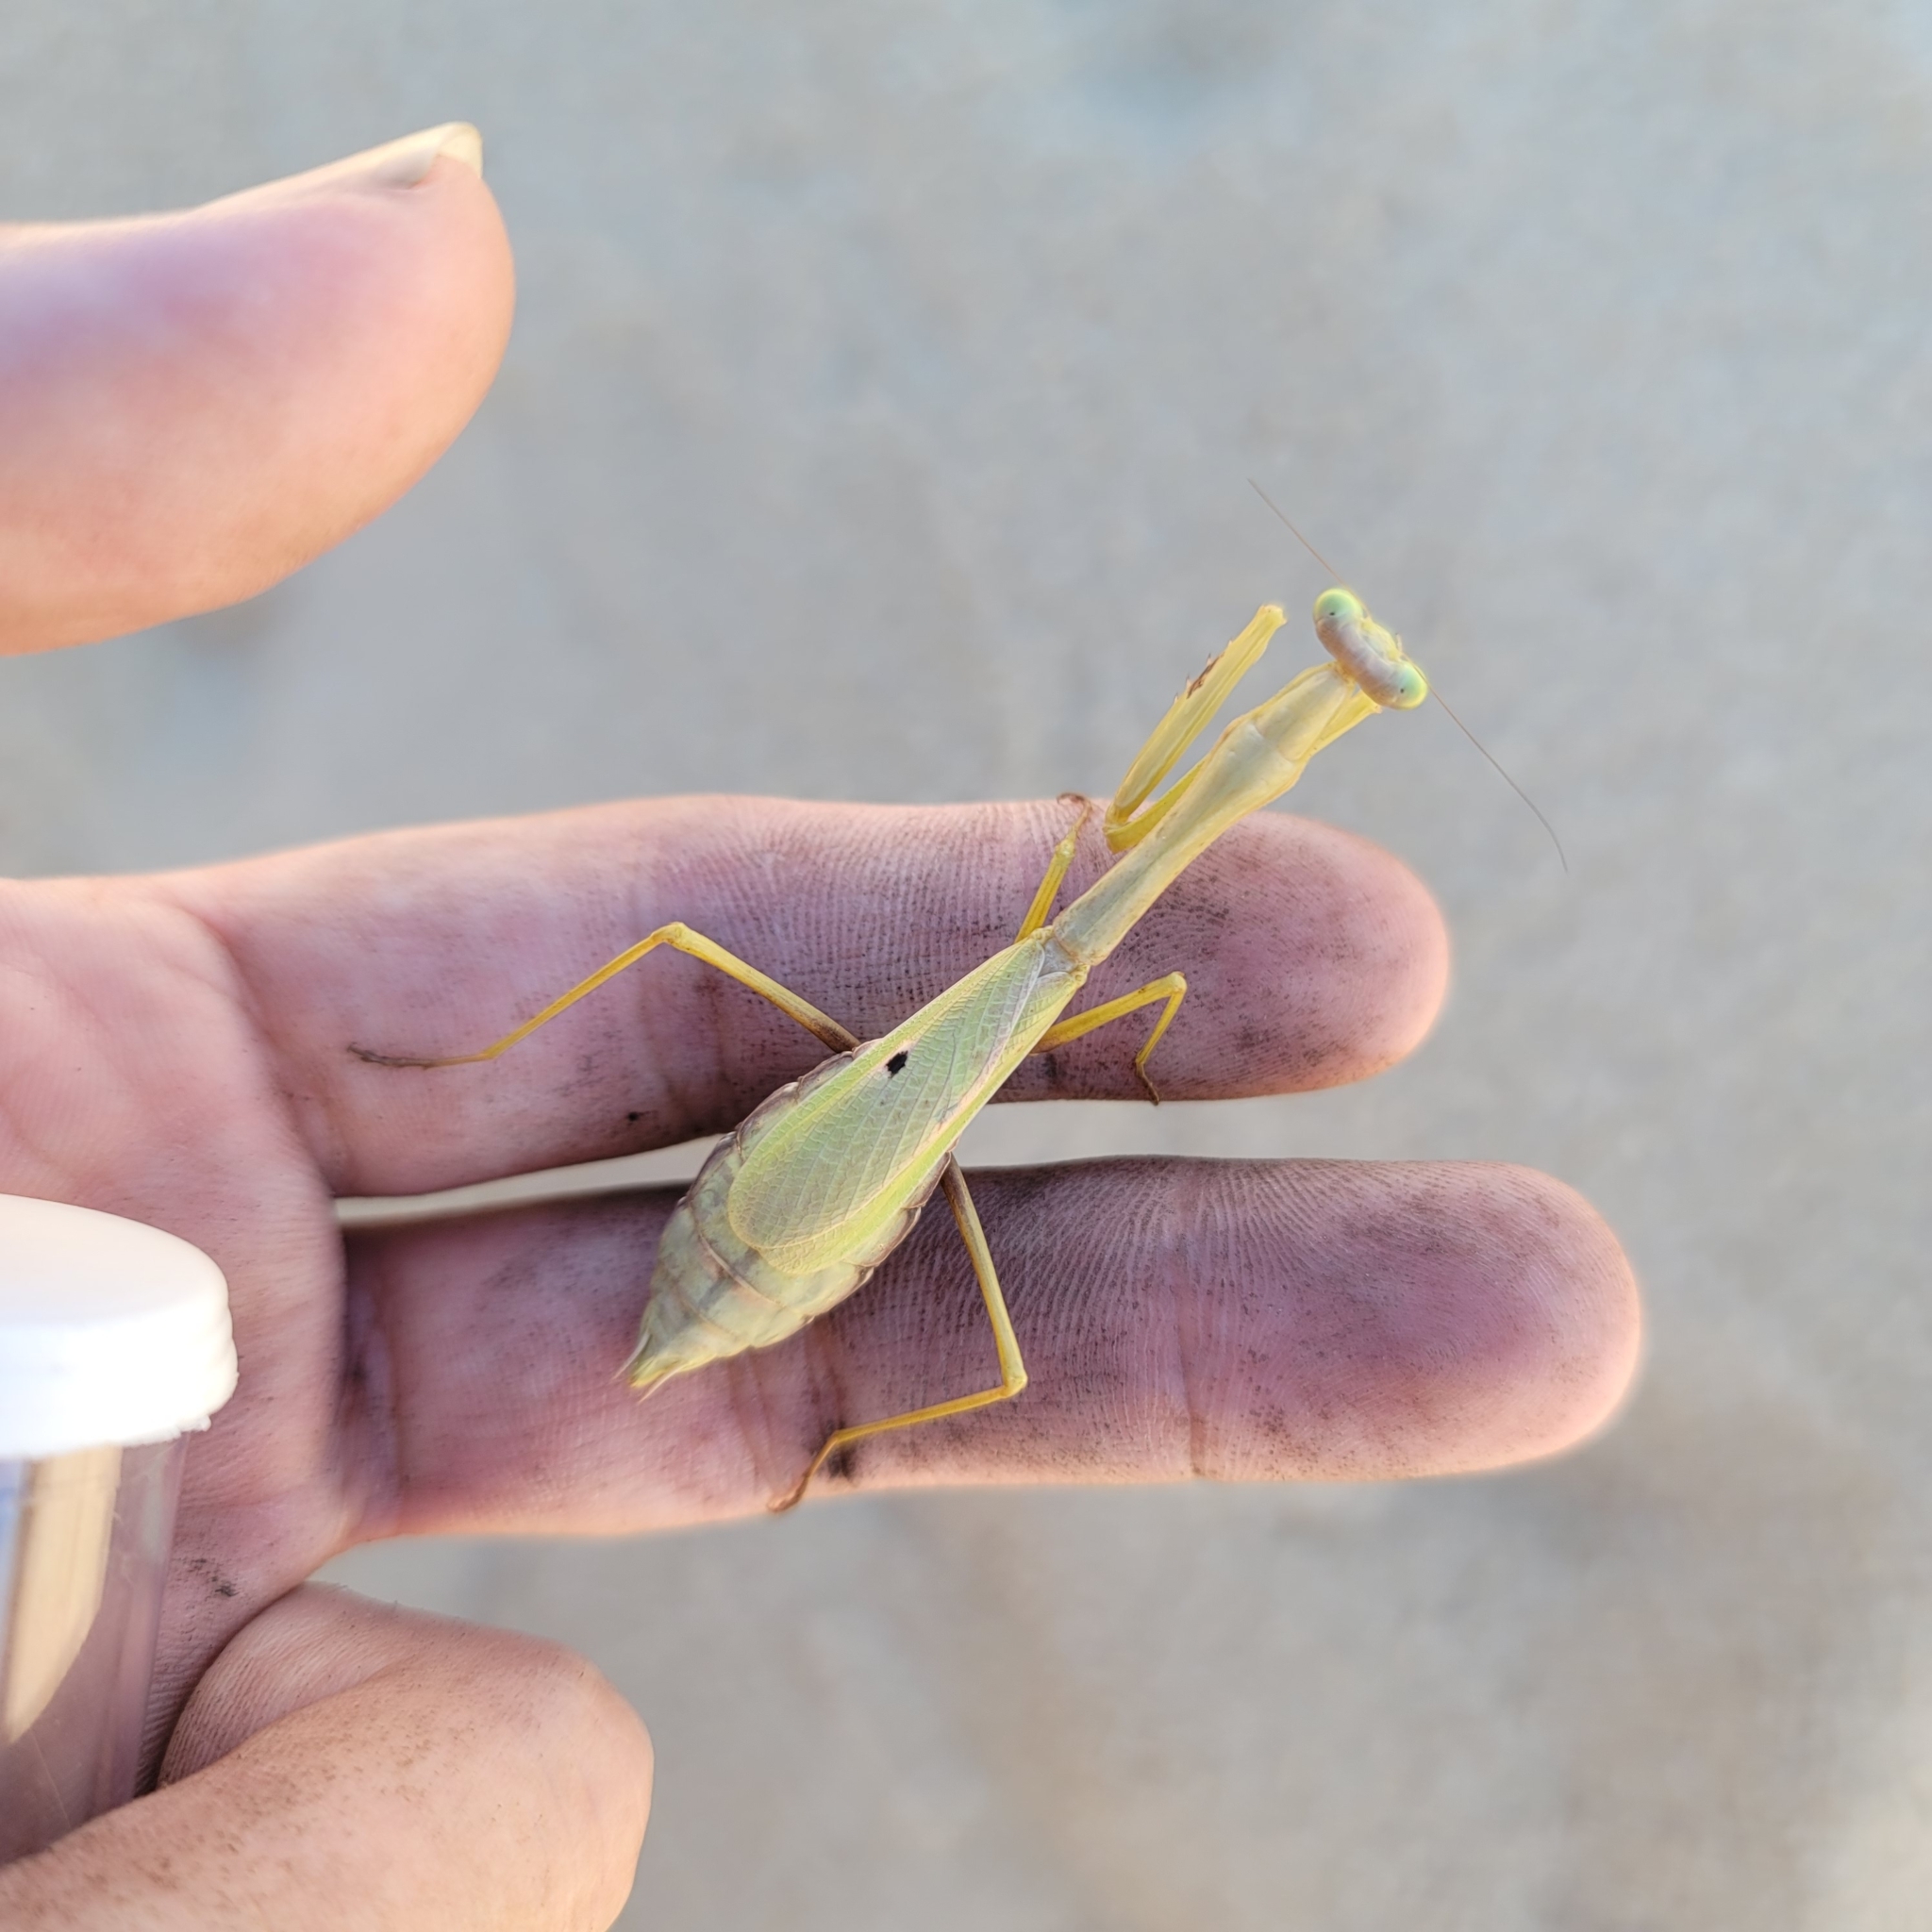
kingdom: Animalia
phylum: Arthropoda
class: Insecta
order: Mantodea
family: Mantidae
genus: Stagmomantis
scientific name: Stagmomantis carolina
